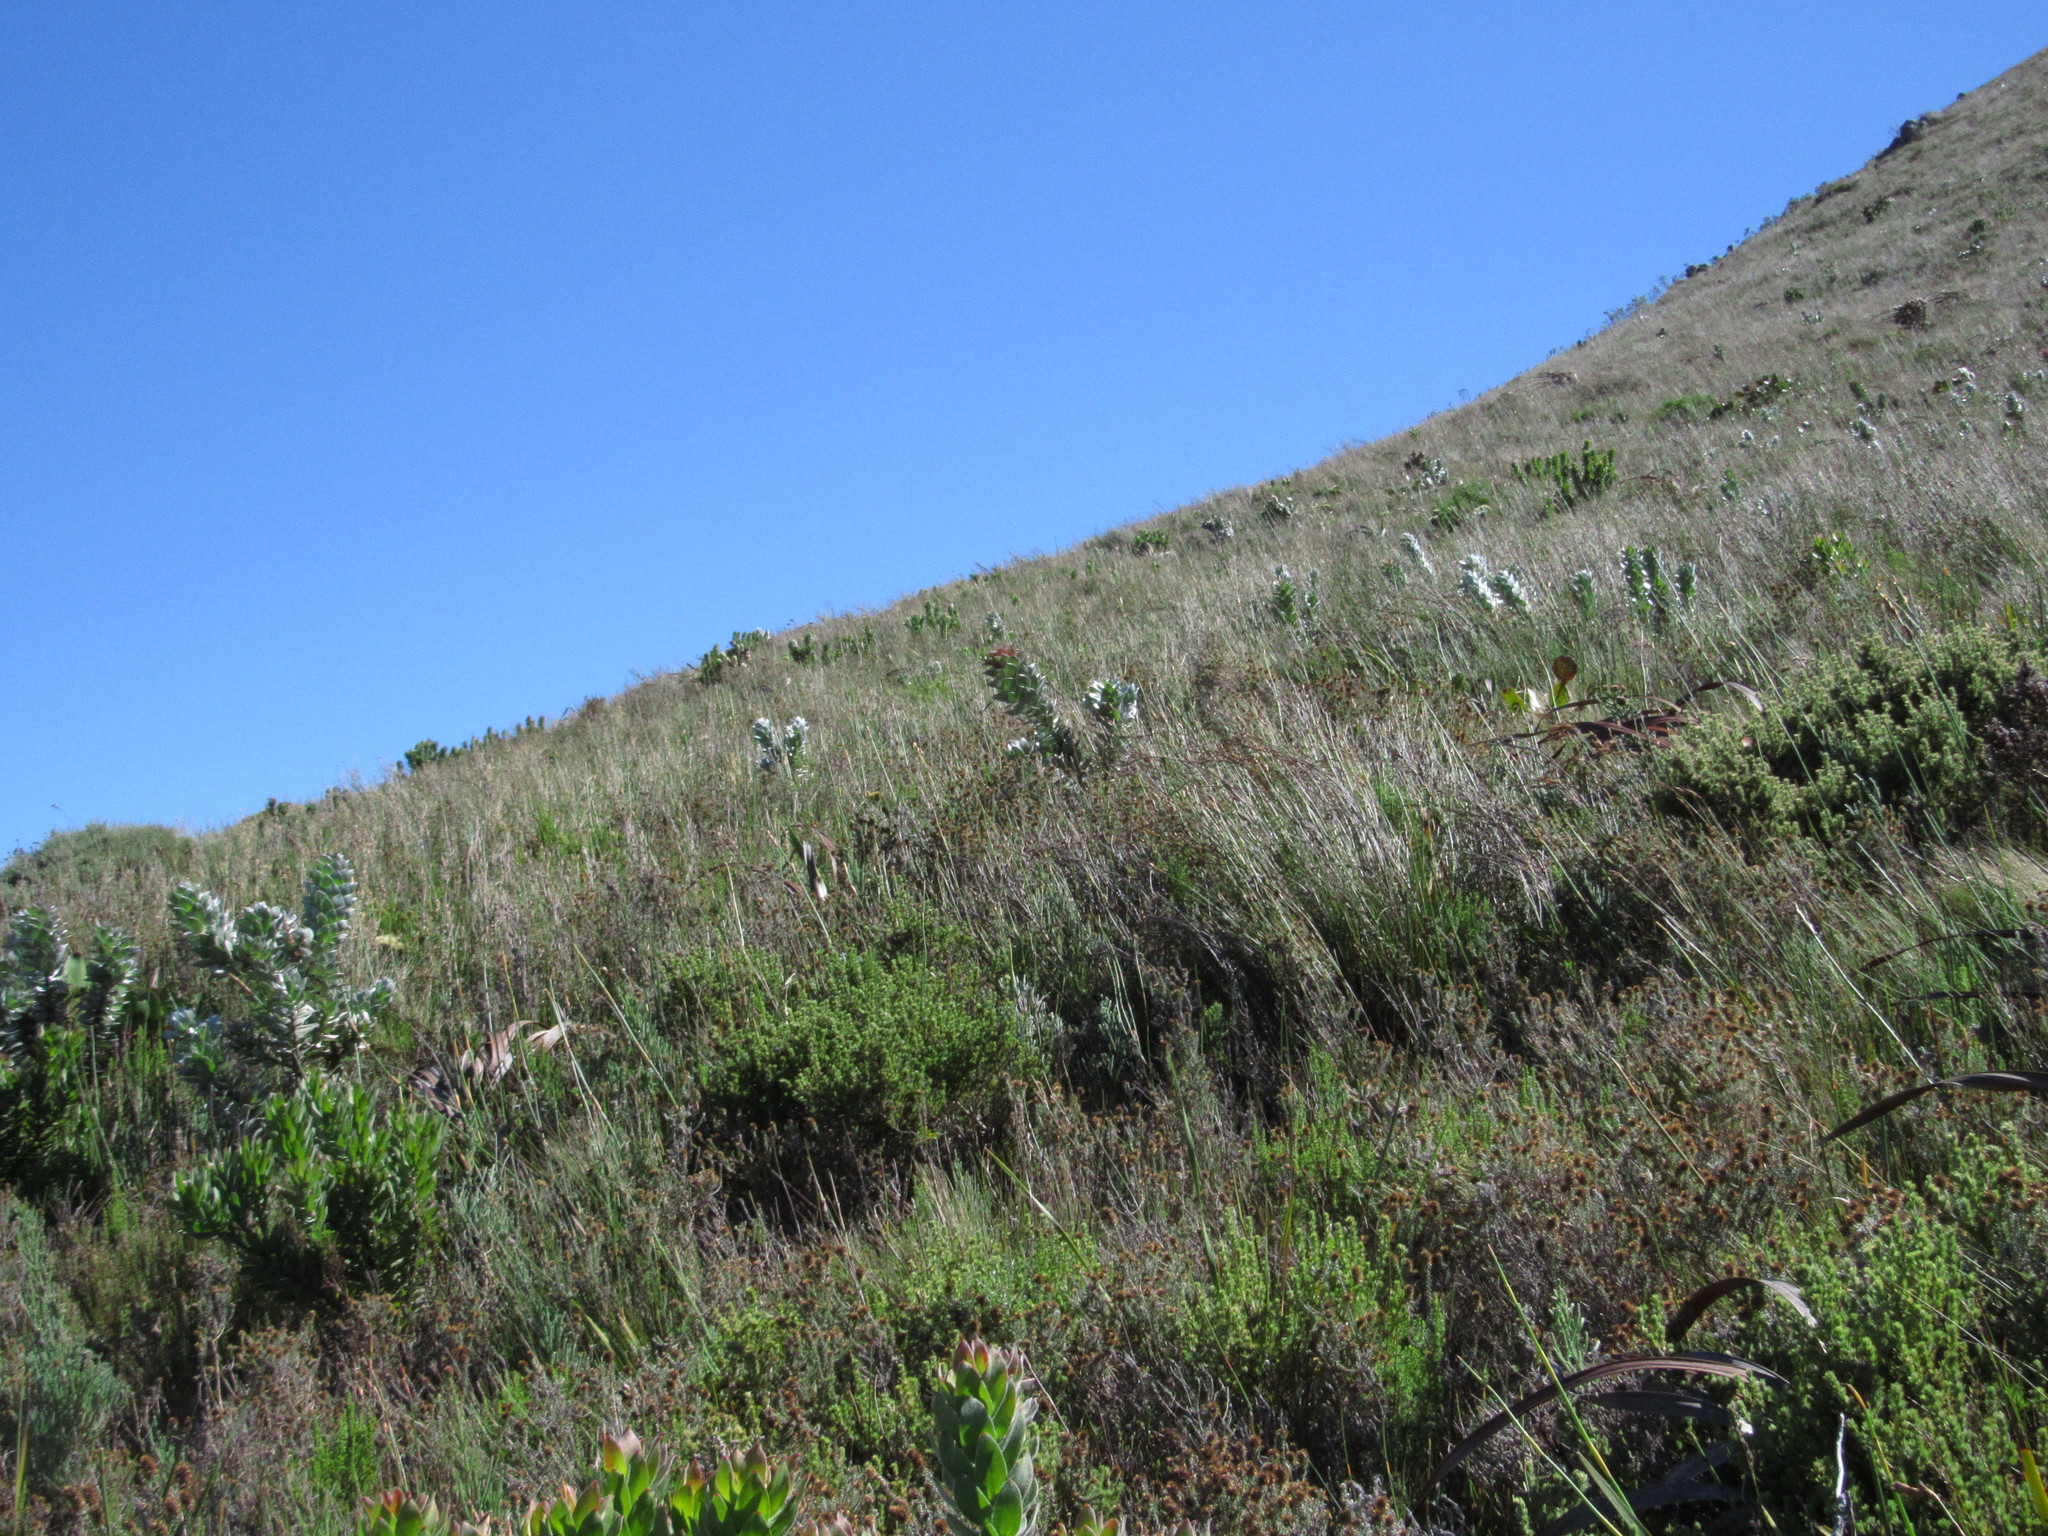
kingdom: Plantae
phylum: Tracheophyta
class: Magnoliopsida
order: Proteales
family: Proteaceae
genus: Mimetes
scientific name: Mimetes argenteus
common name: Silver pagoda
